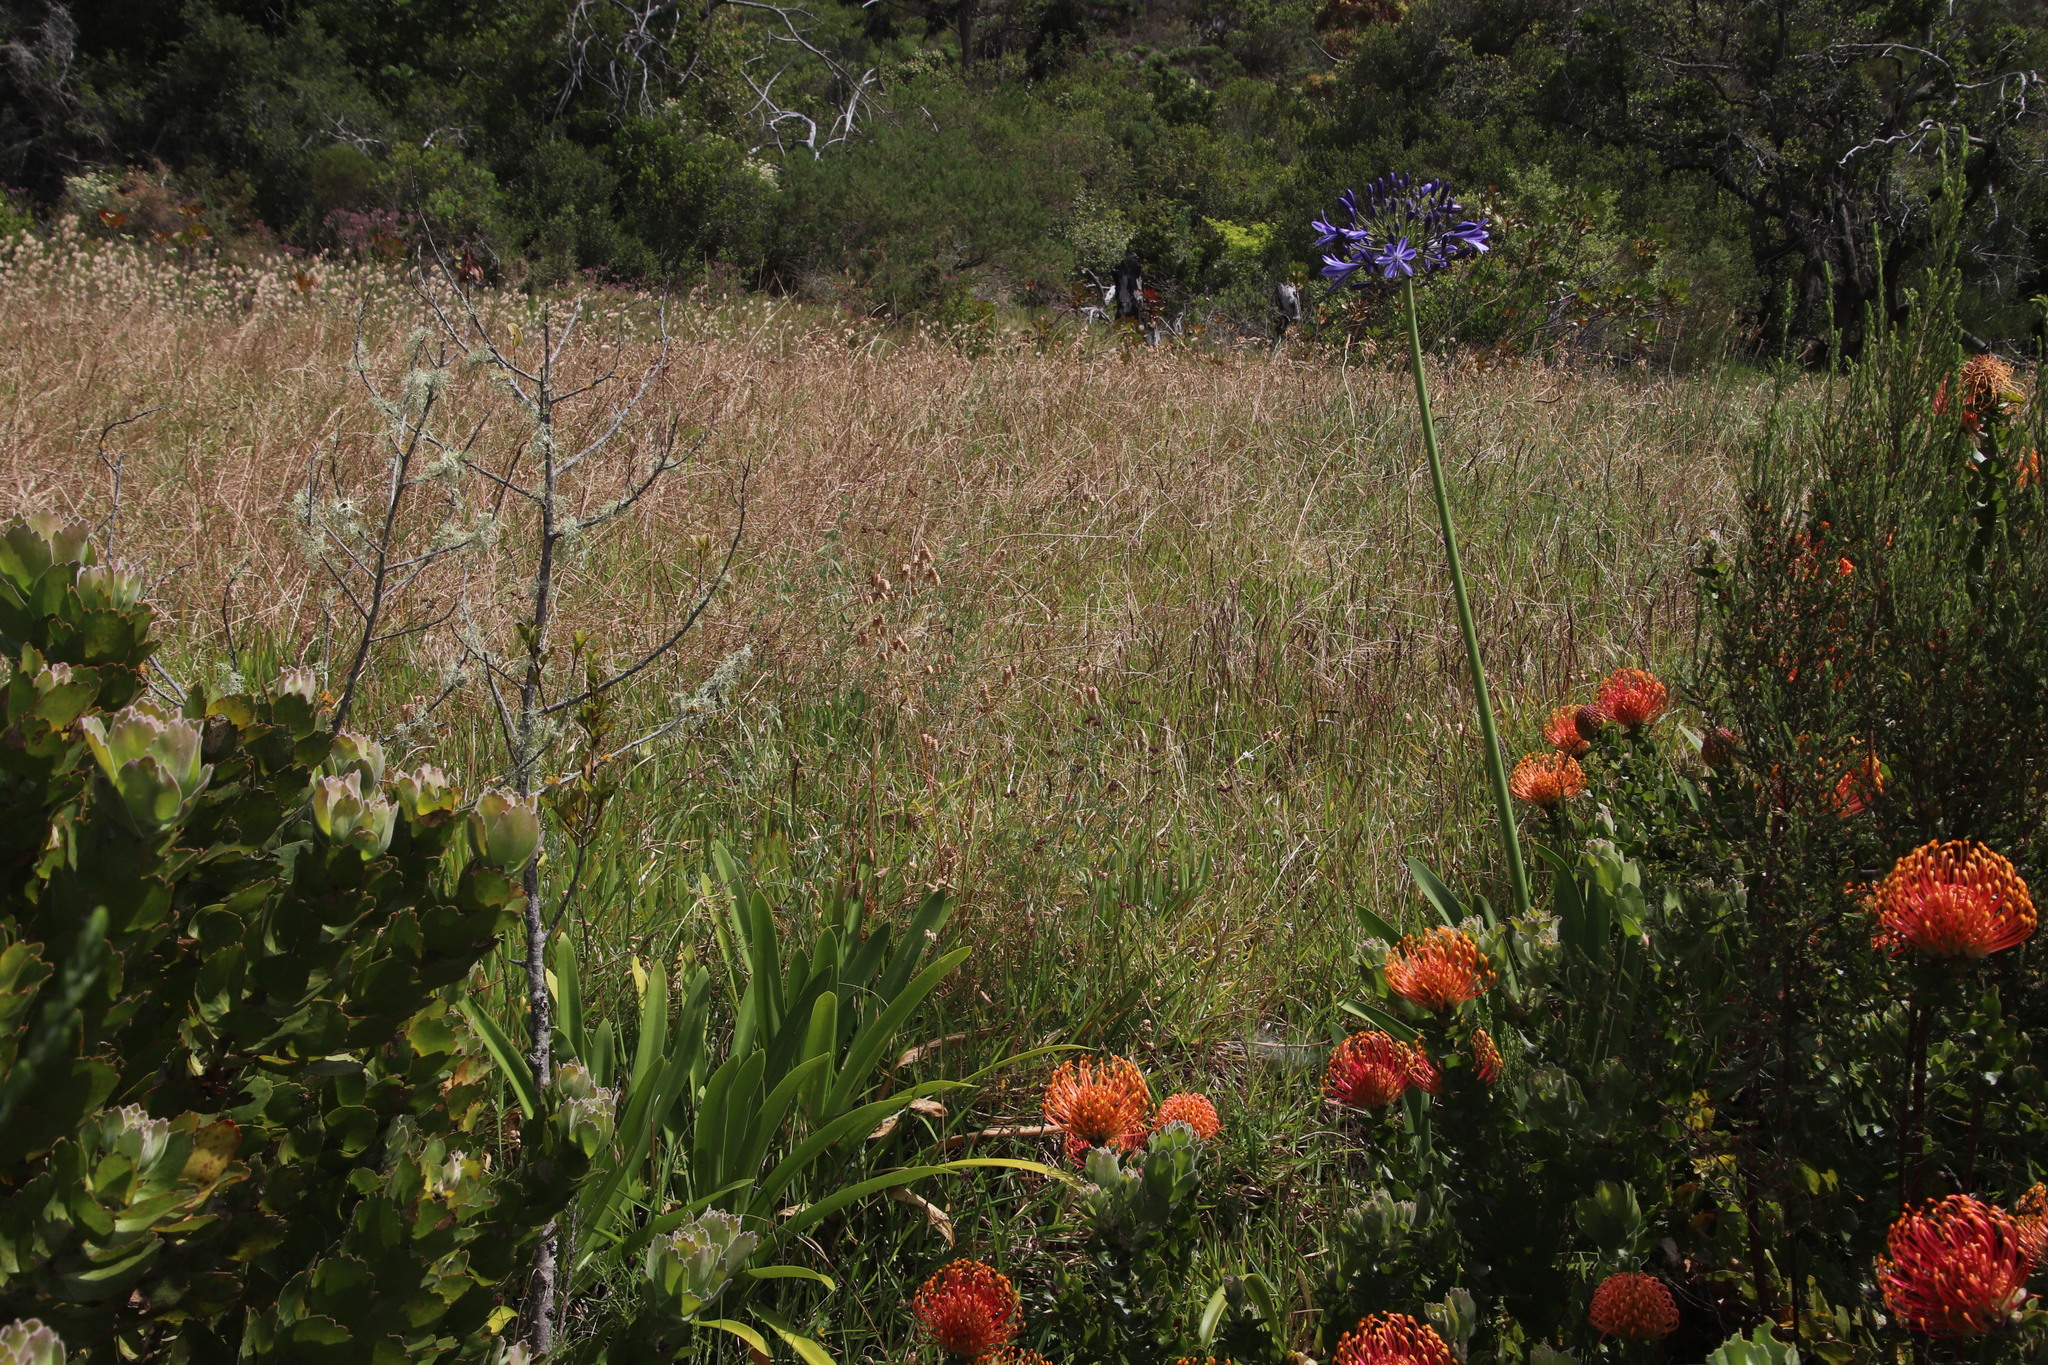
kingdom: Plantae
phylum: Tracheophyta
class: Liliopsida
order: Asparagales
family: Amaryllidaceae
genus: Agapanthus
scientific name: Agapanthus praecox
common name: African-lily
